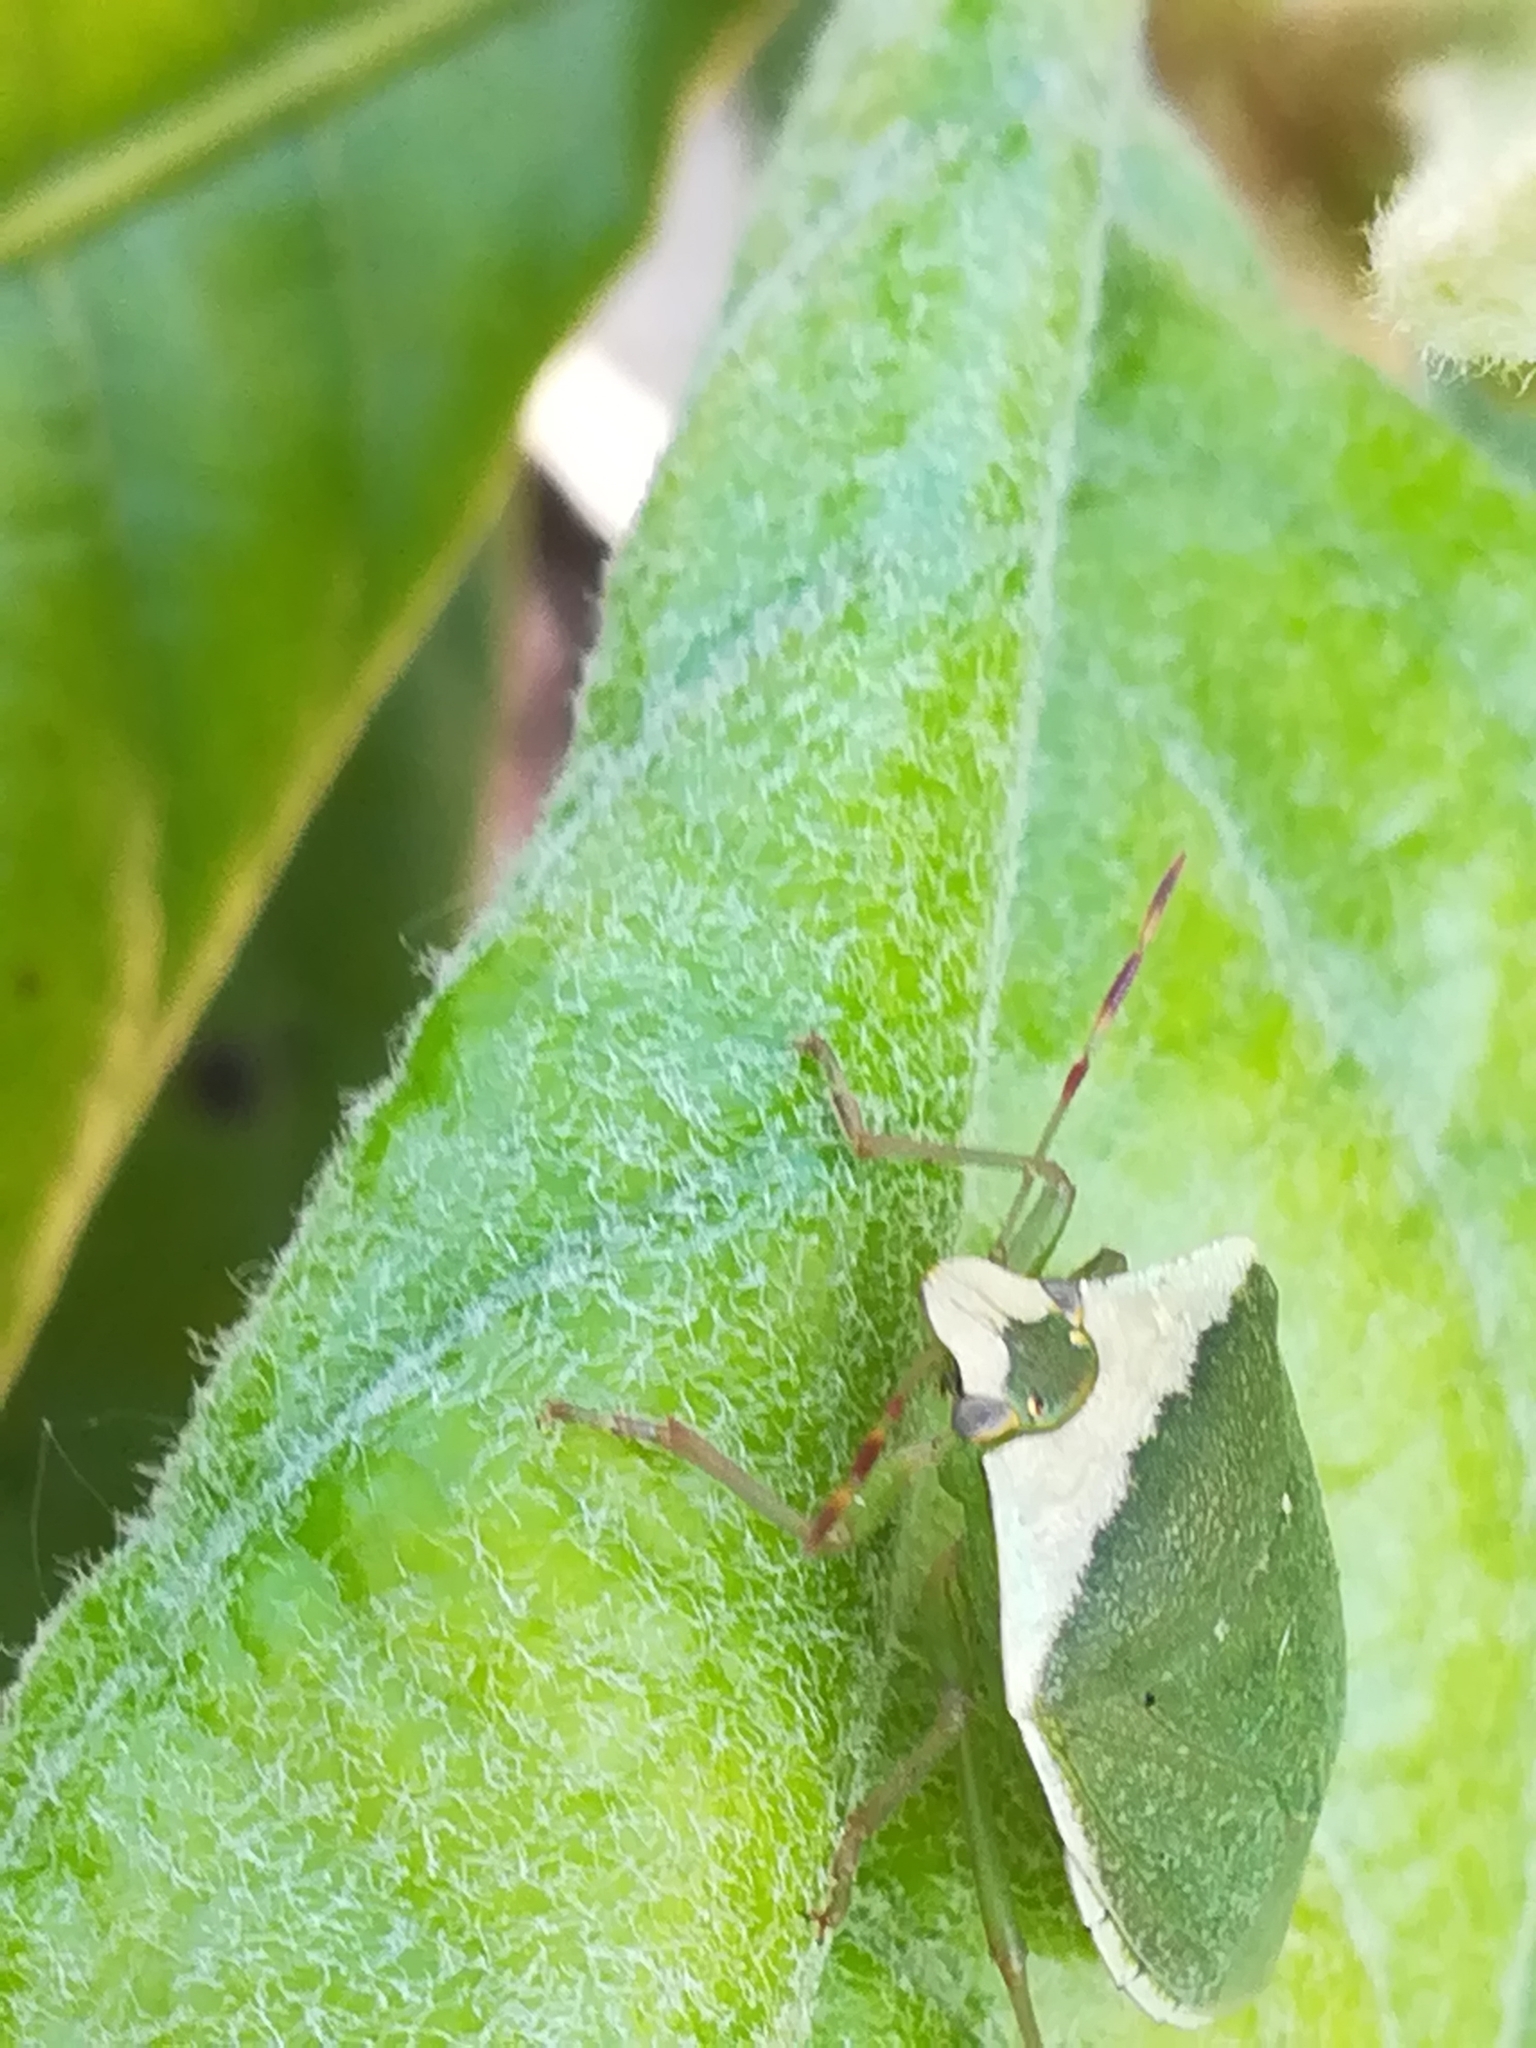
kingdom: Animalia
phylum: Arthropoda
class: Insecta
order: Hemiptera
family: Pentatomidae
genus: Nezara
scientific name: Nezara viridula
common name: Southern green stink bug
